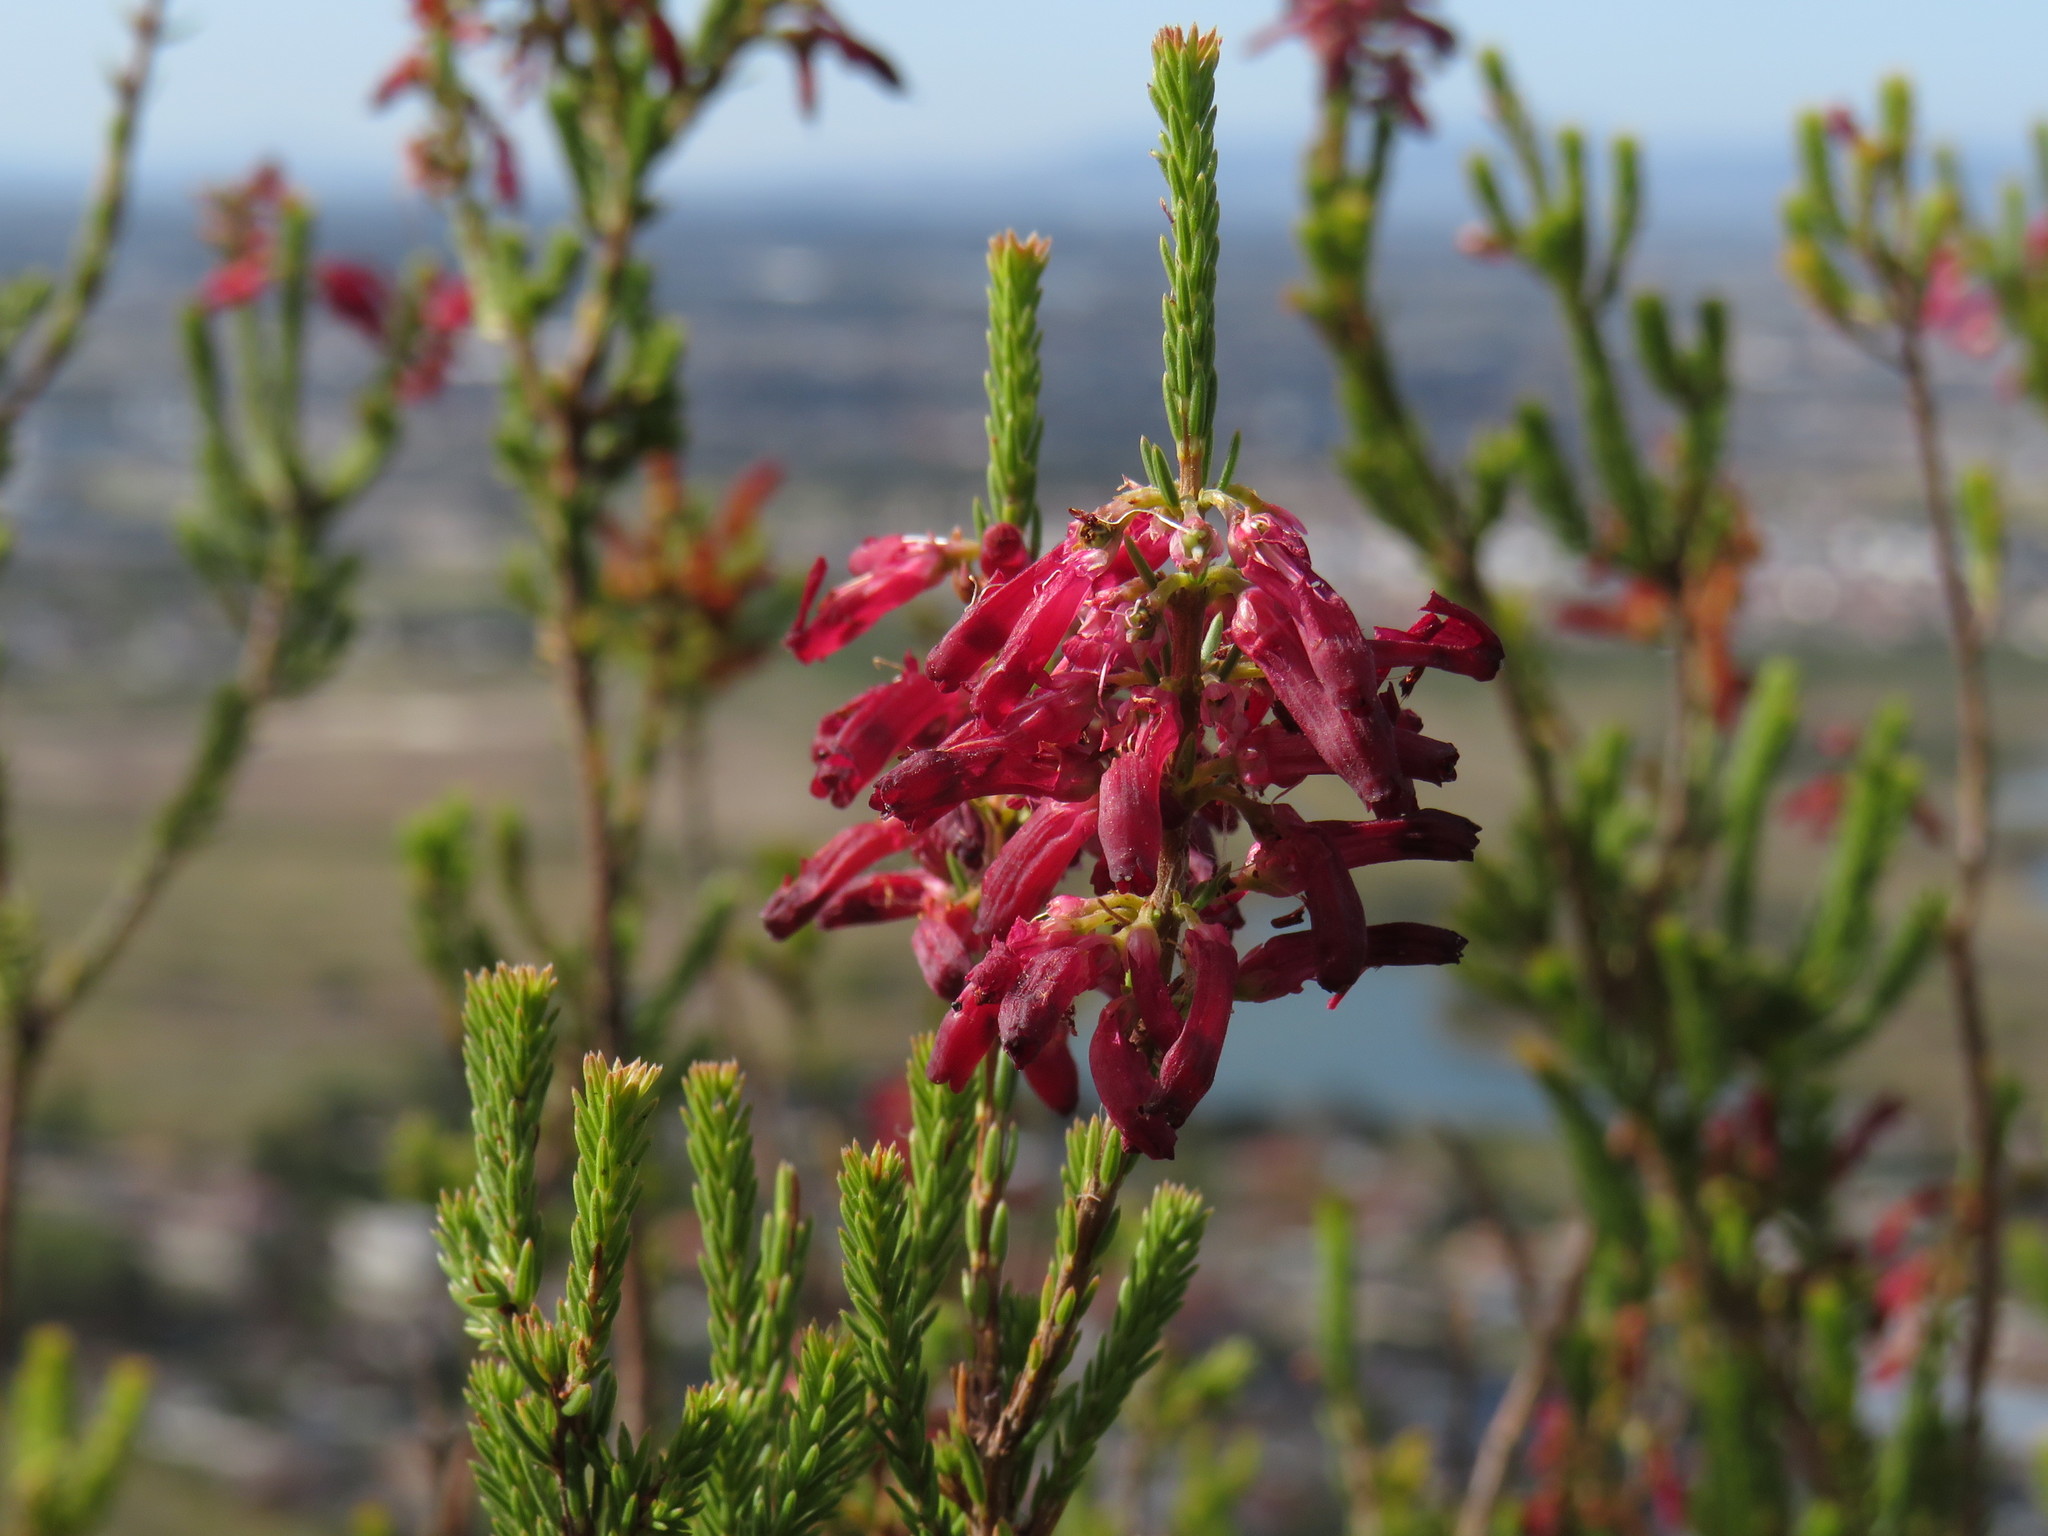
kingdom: Plantae
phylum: Tracheophyta
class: Magnoliopsida
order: Ericales
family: Ericaceae
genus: Erica
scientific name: Erica mammosa
